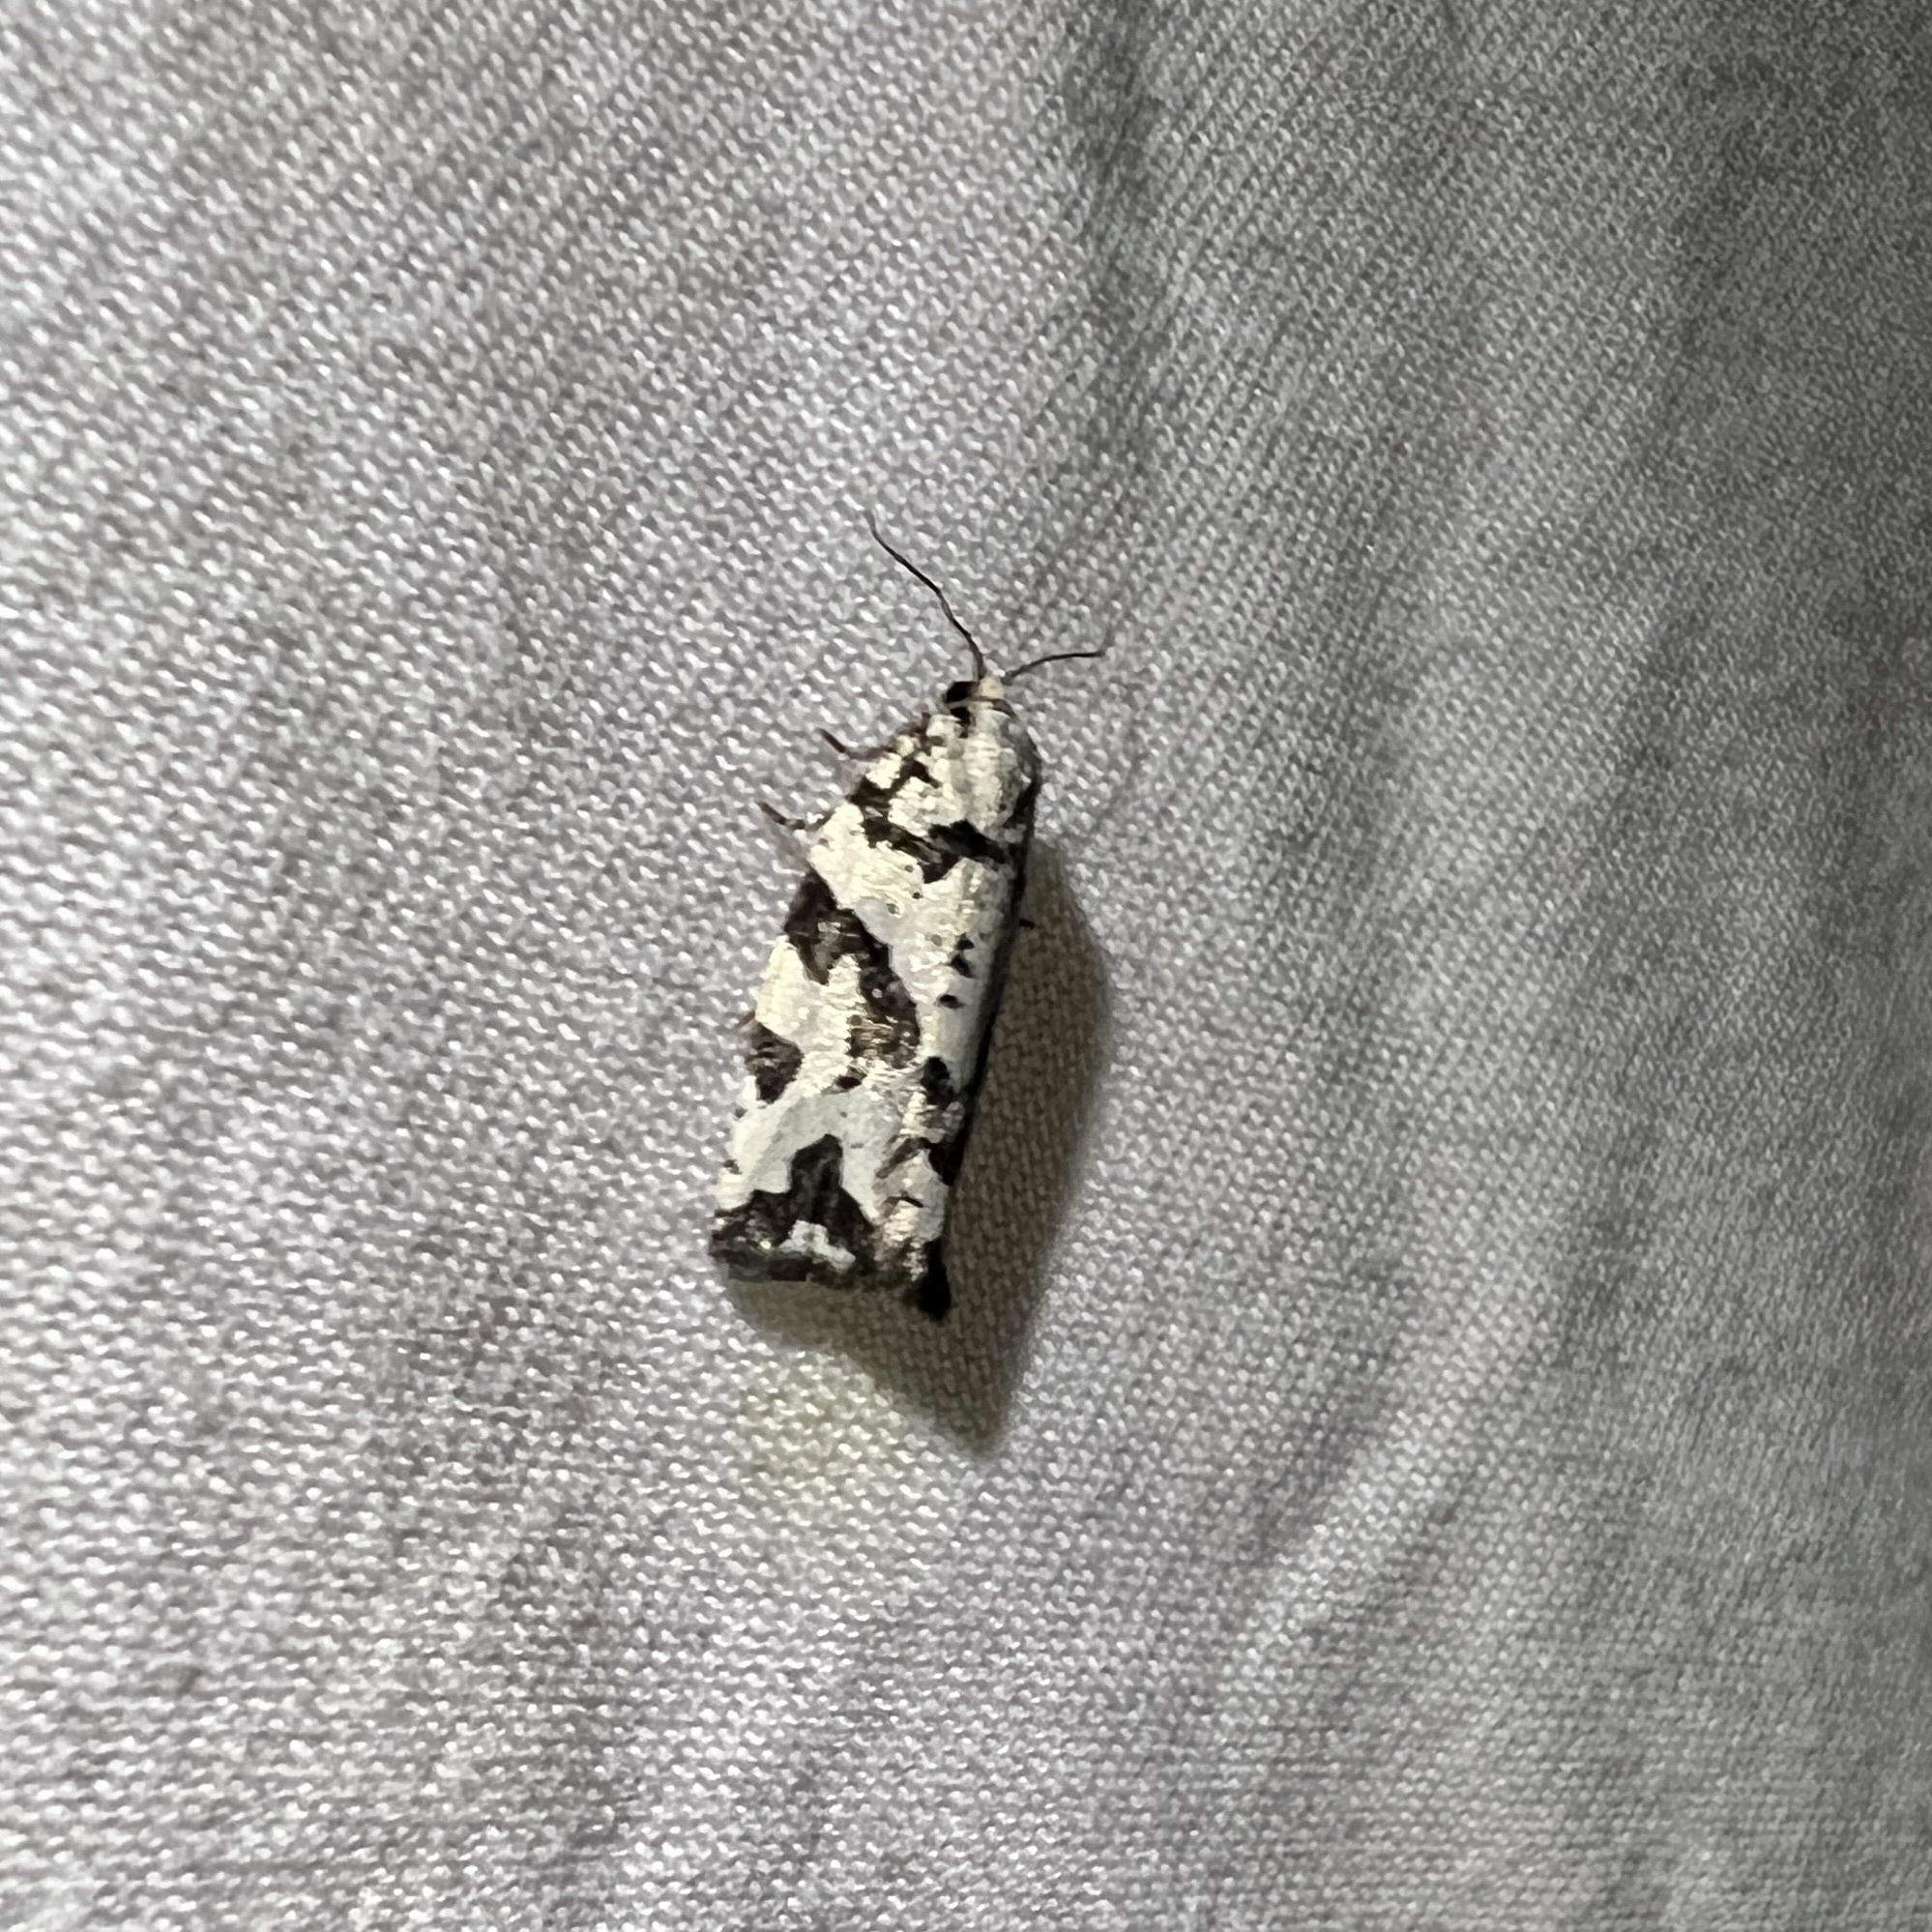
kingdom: Animalia
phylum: Arthropoda
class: Insecta
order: Lepidoptera
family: Tortricidae
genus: Archips
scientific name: Archips dissitana
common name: Boldly-marked archips moth
